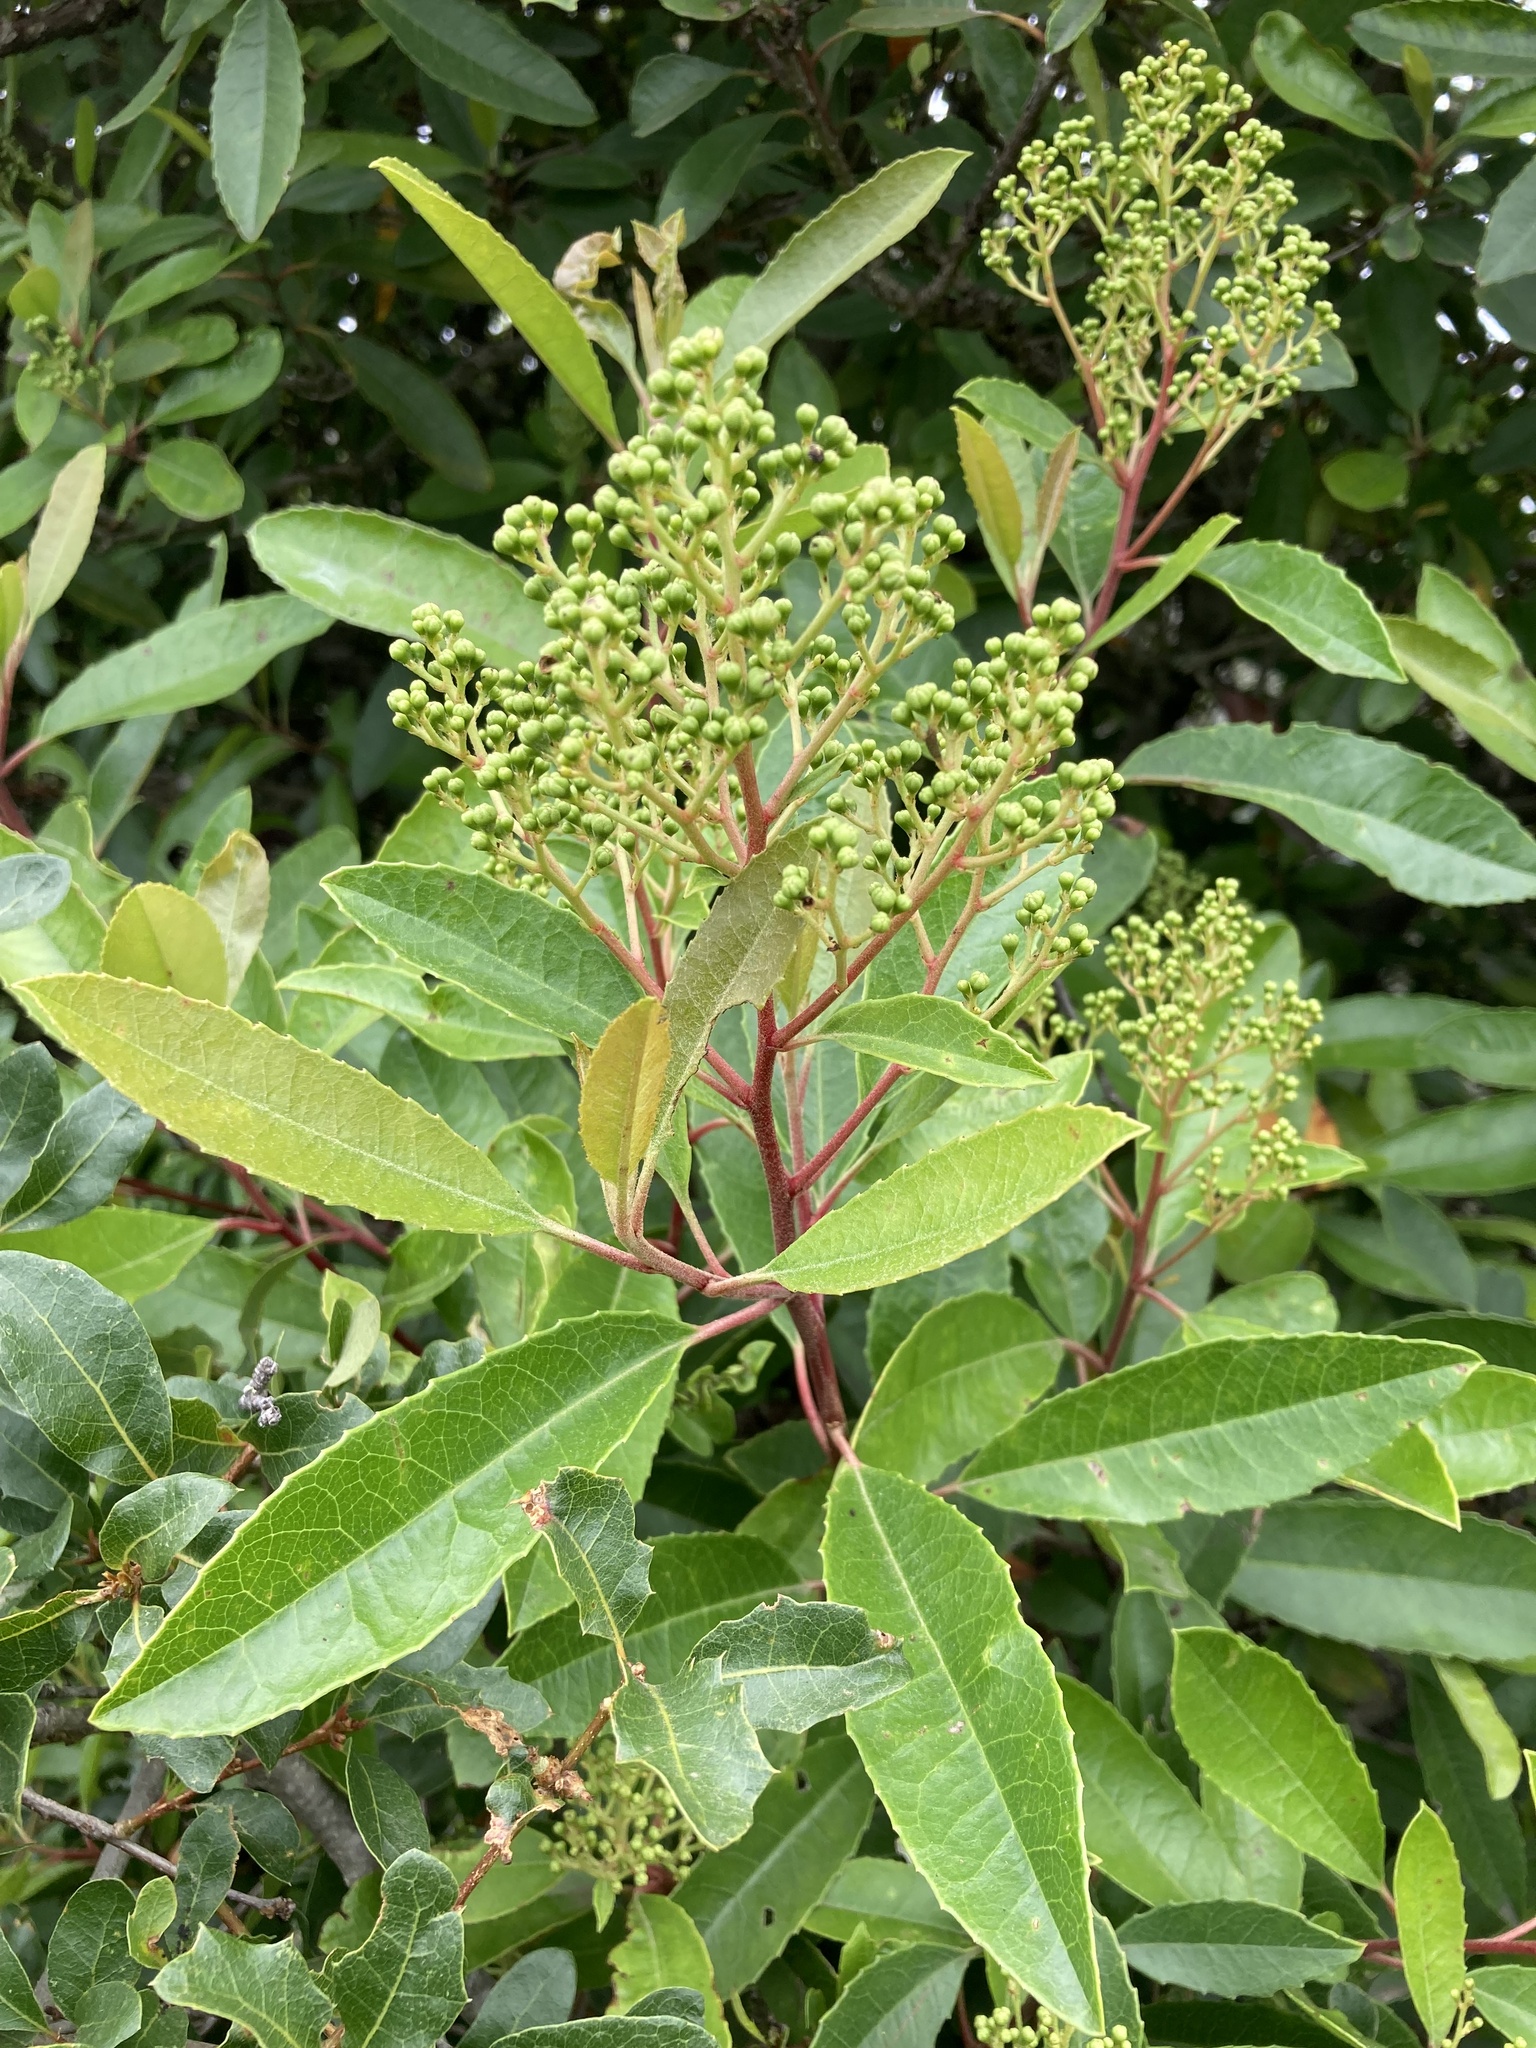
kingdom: Plantae
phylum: Tracheophyta
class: Magnoliopsida
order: Rosales
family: Rosaceae
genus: Heteromeles
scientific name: Heteromeles arbutifolia
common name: California-holly
